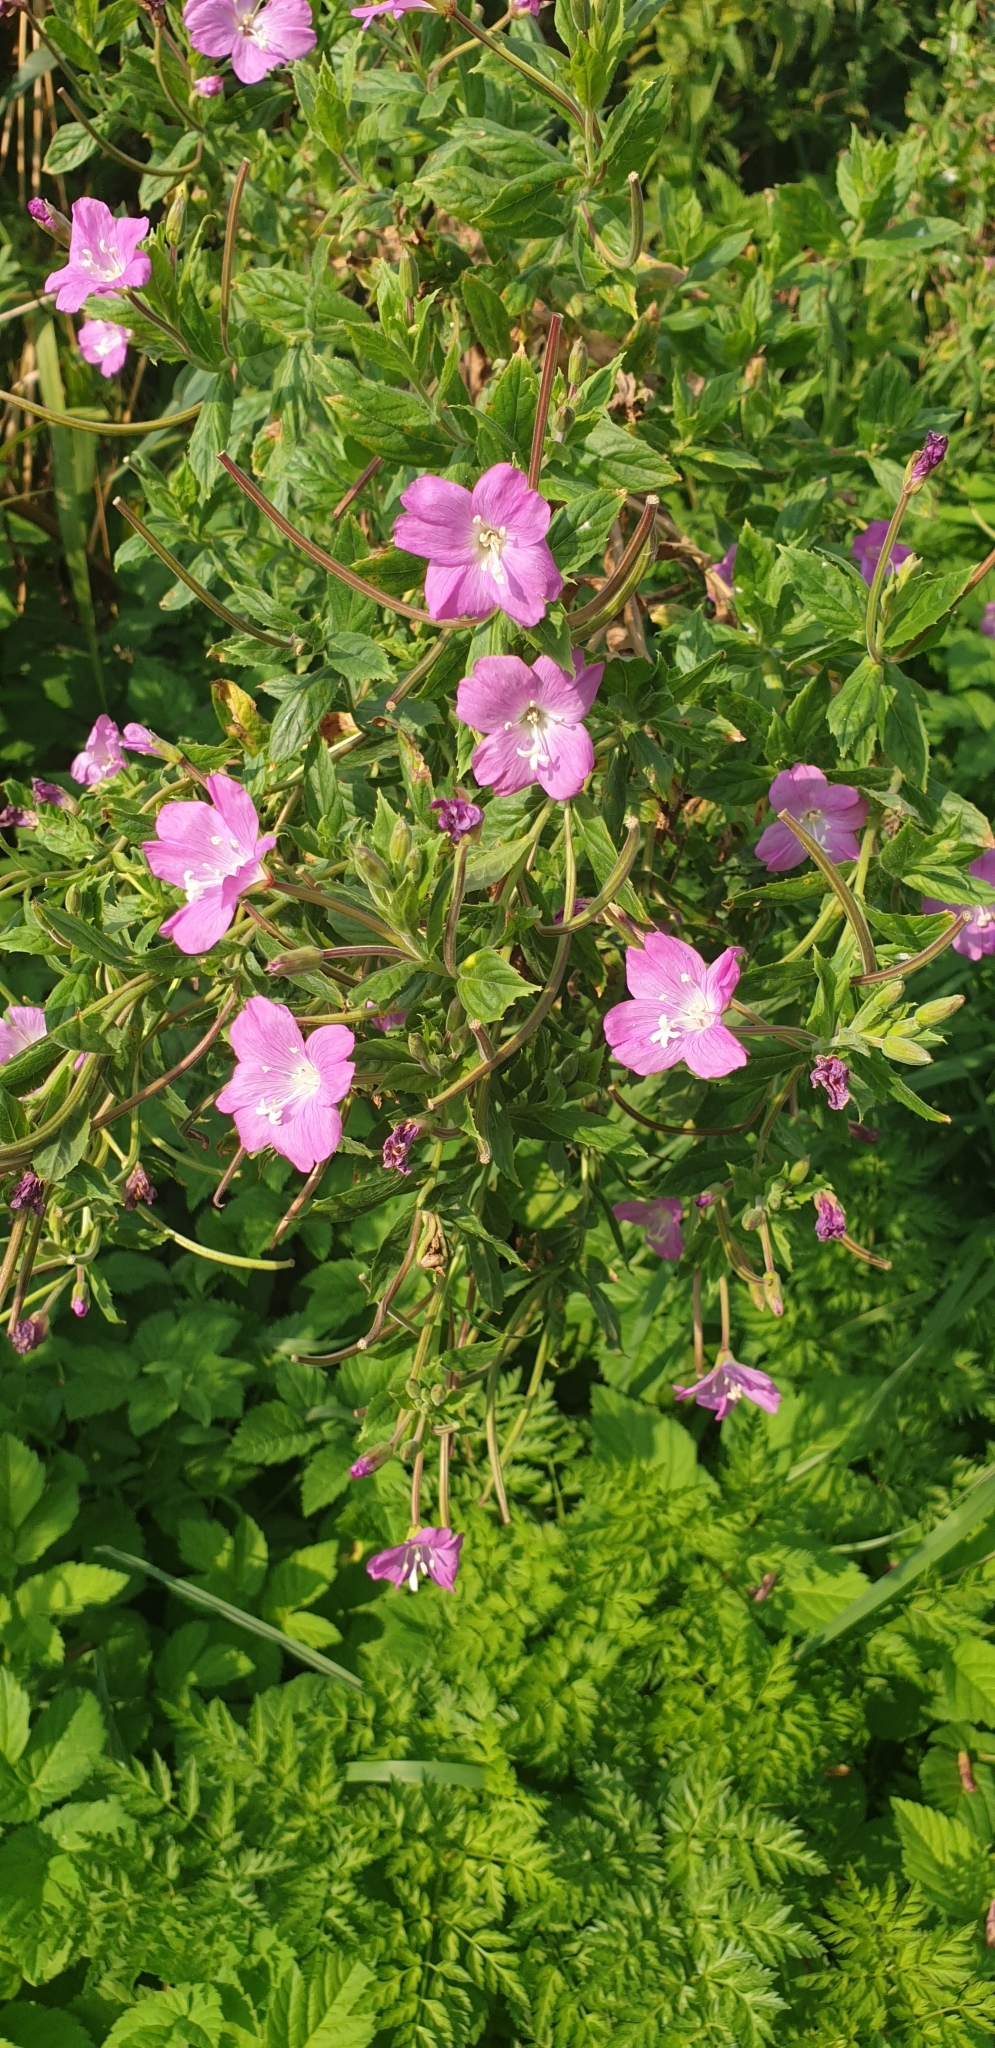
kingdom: Plantae
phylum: Tracheophyta
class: Magnoliopsida
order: Myrtales
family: Onagraceae
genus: Epilobium
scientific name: Epilobium hirsutum
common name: Great willowherb
